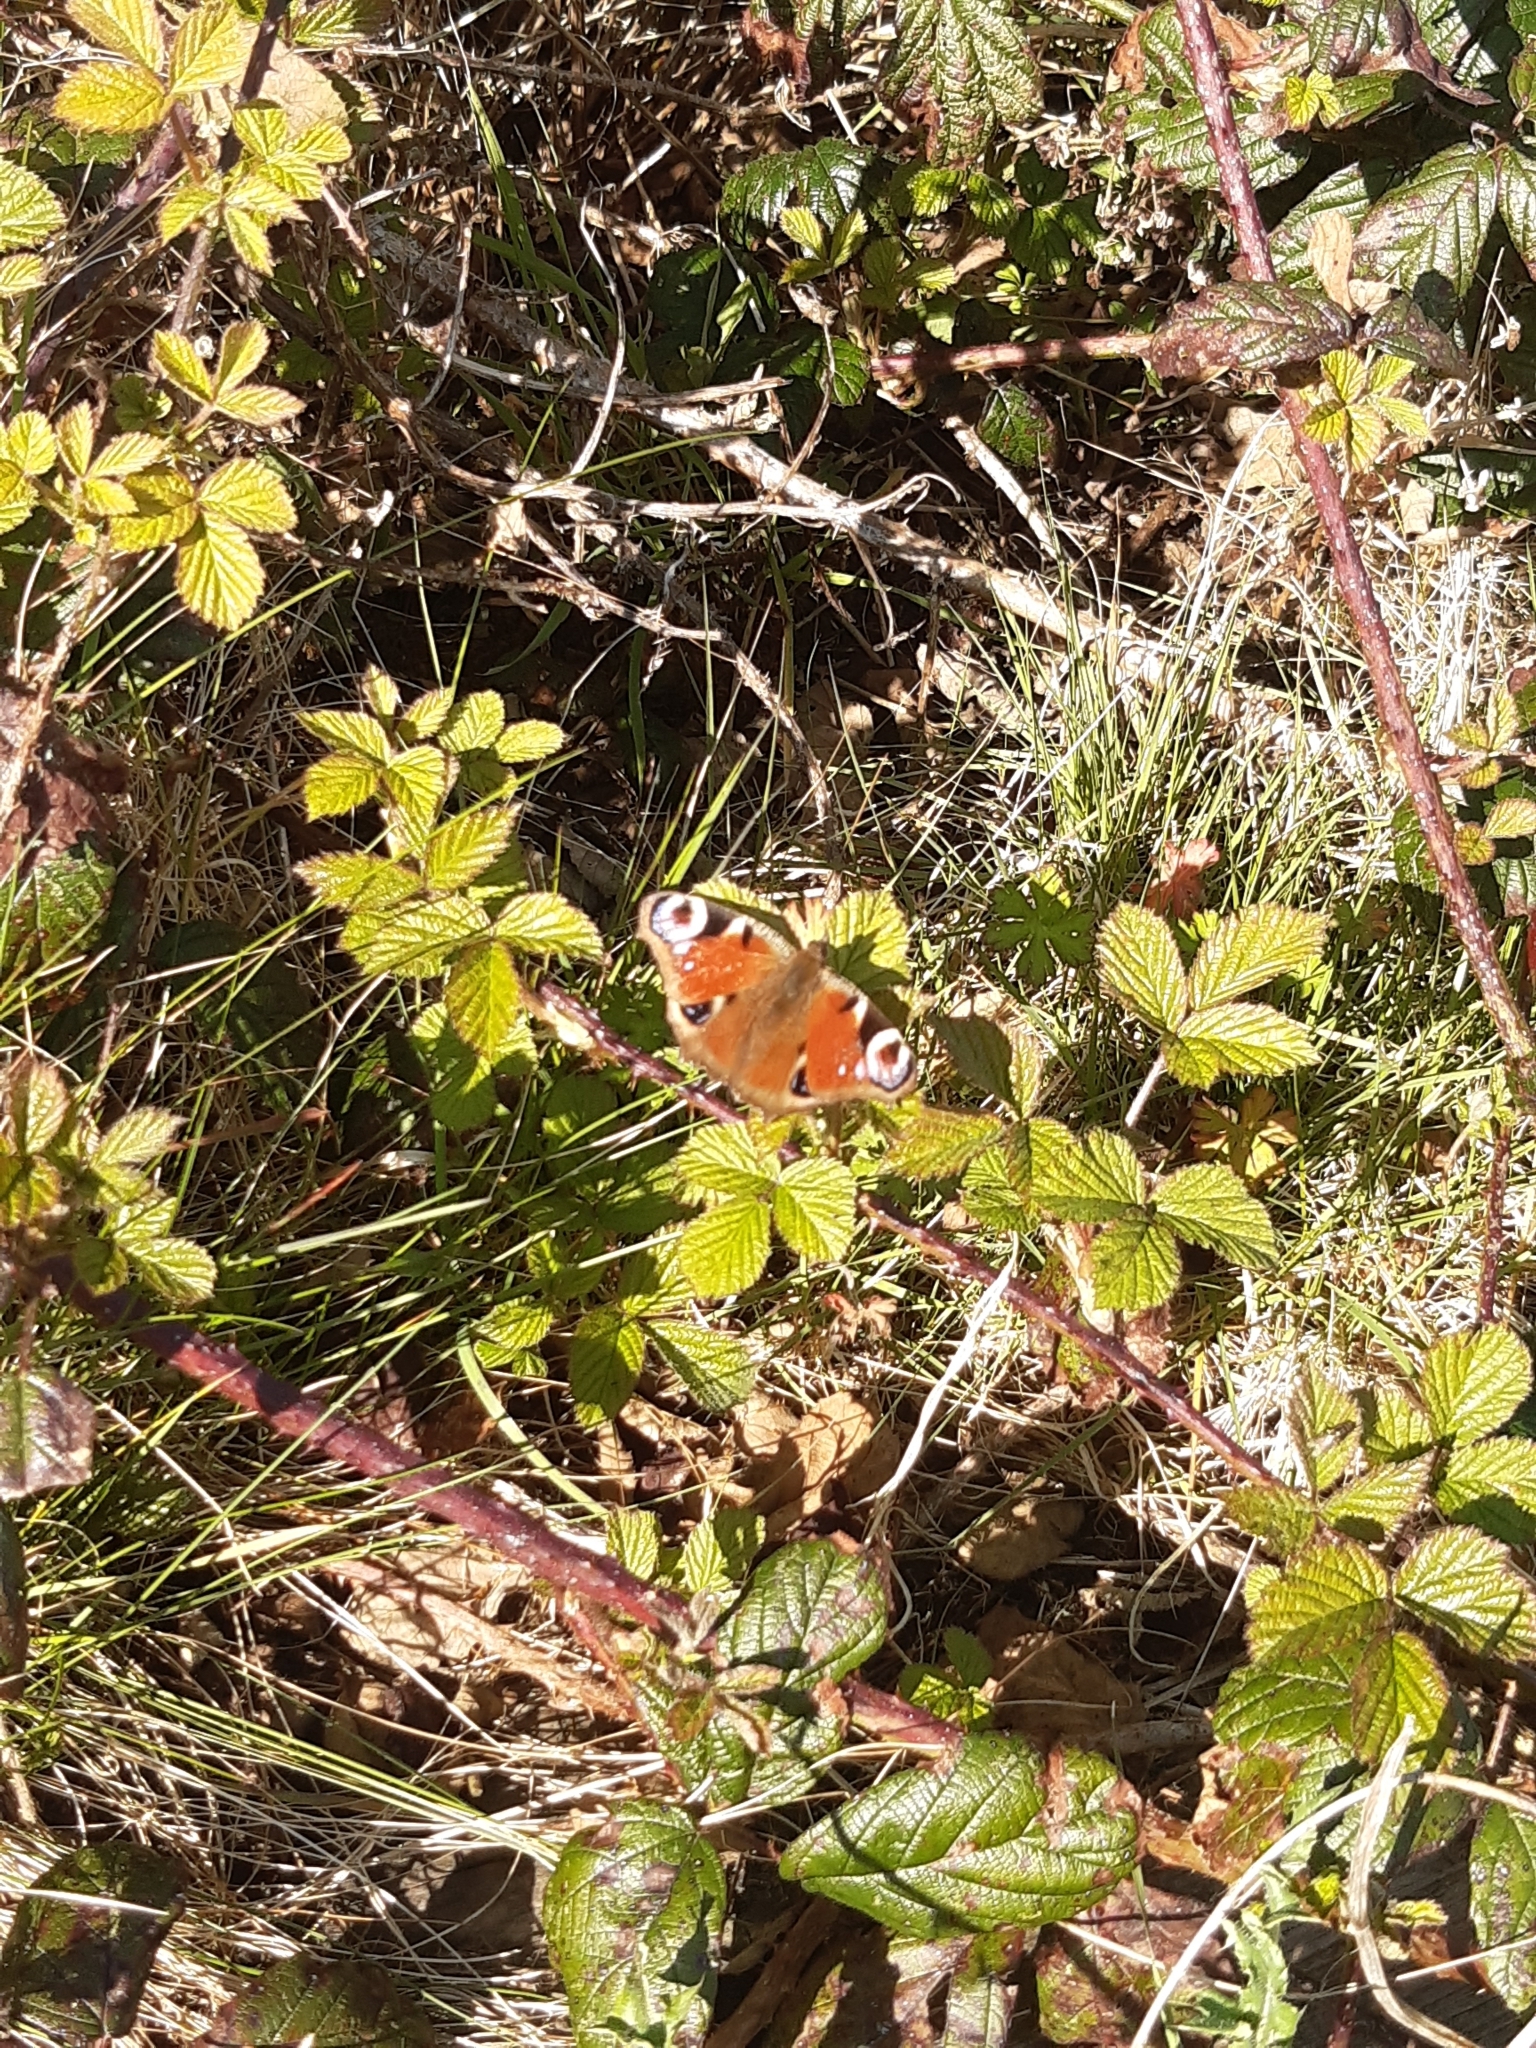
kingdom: Animalia
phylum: Arthropoda
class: Insecta
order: Lepidoptera
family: Nymphalidae
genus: Aglais
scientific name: Aglais io
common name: Peacock
